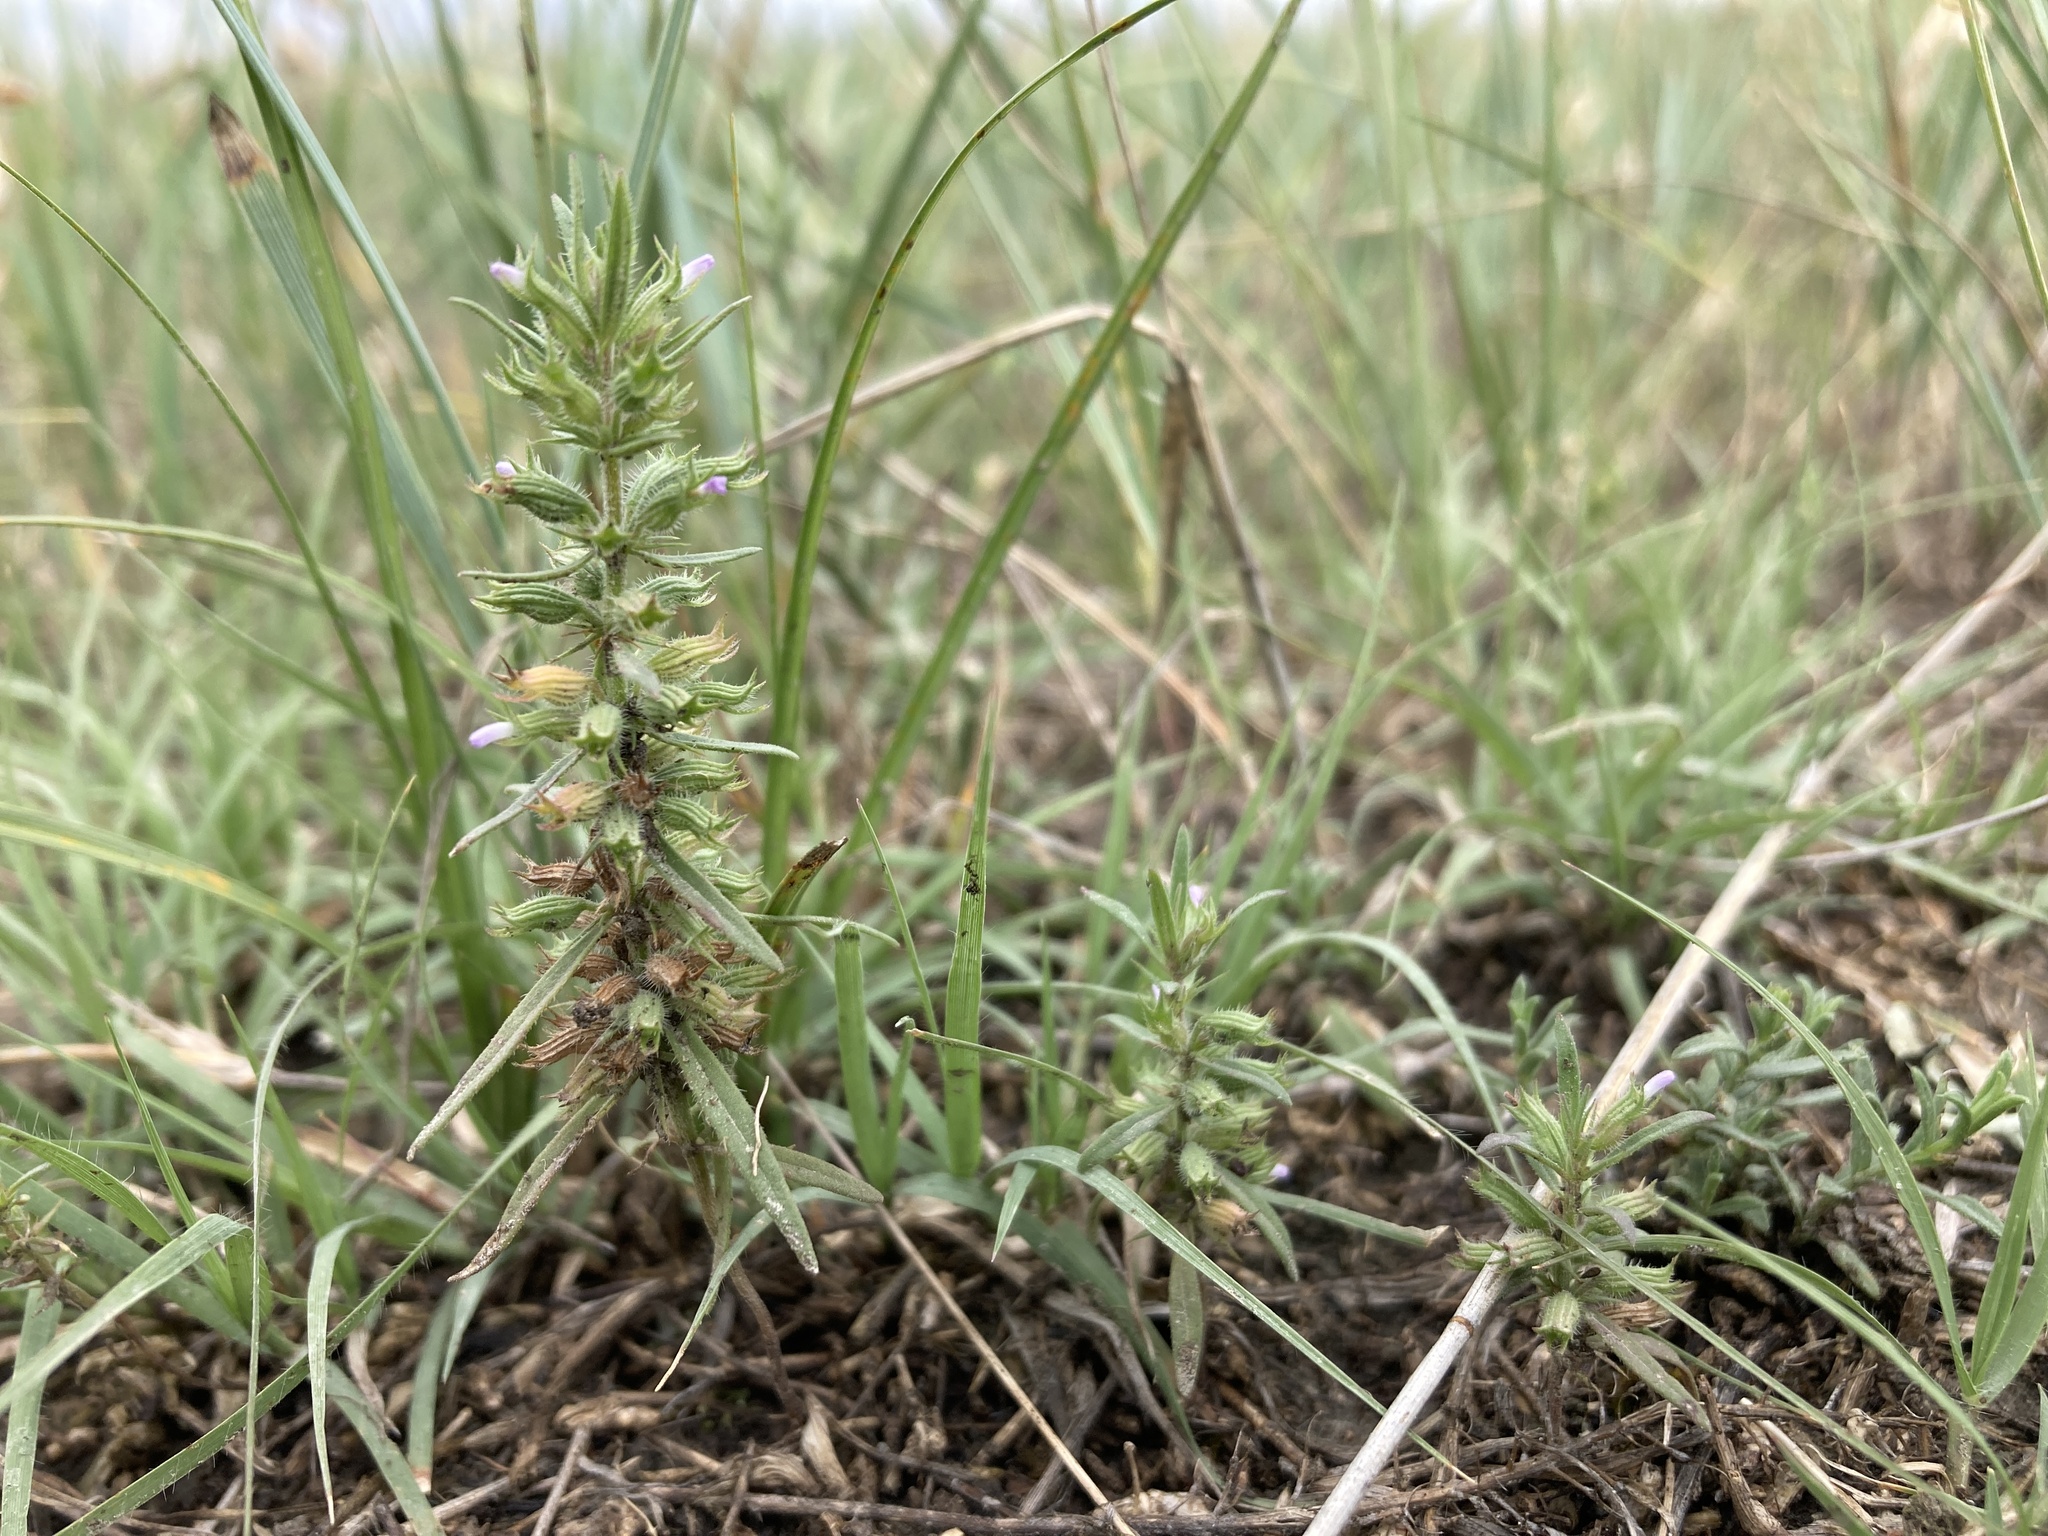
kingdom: Plantae
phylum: Tracheophyta
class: Magnoliopsida
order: Lamiales
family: Lamiaceae
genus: Hedeoma
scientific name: Hedeoma hispida
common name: Mock pennyroyal
